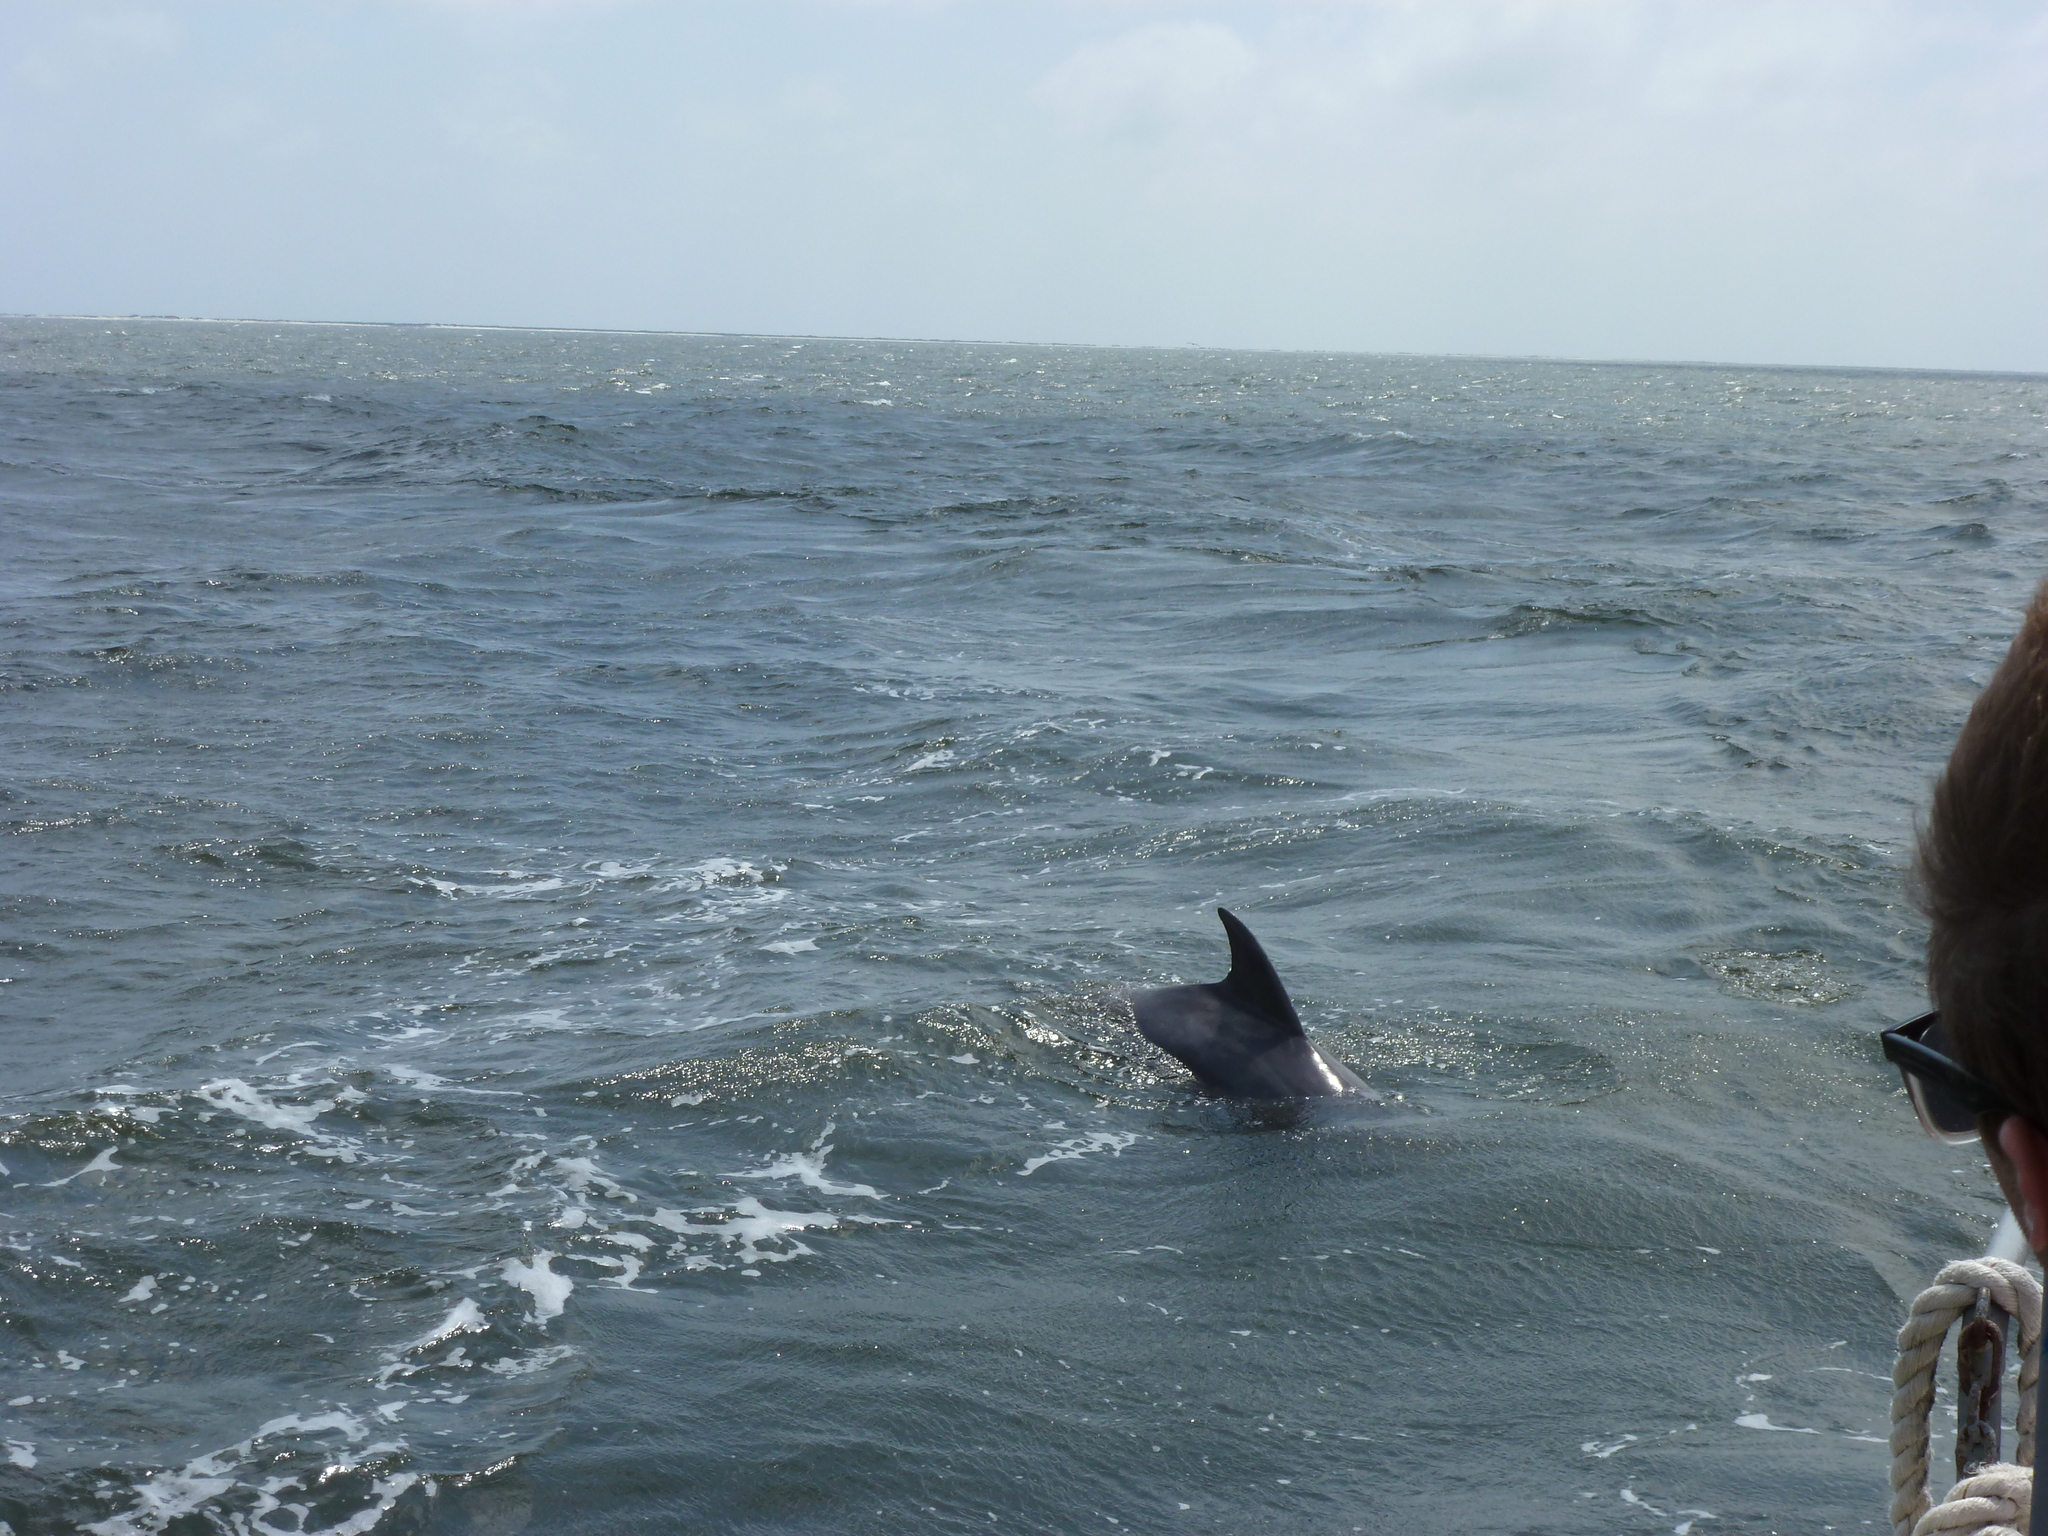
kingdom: Animalia
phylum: Chordata
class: Mammalia
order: Cetacea
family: Delphinidae
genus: Tursiops
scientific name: Tursiops truncatus
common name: Bottlenose dolphin
